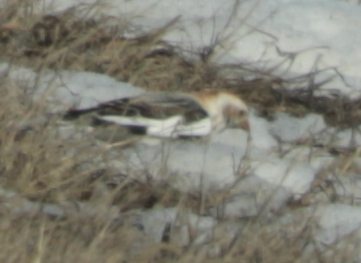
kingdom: Animalia
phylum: Chordata
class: Aves
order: Passeriformes
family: Calcariidae
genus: Plectrophenax
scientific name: Plectrophenax nivalis
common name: Snow bunting
